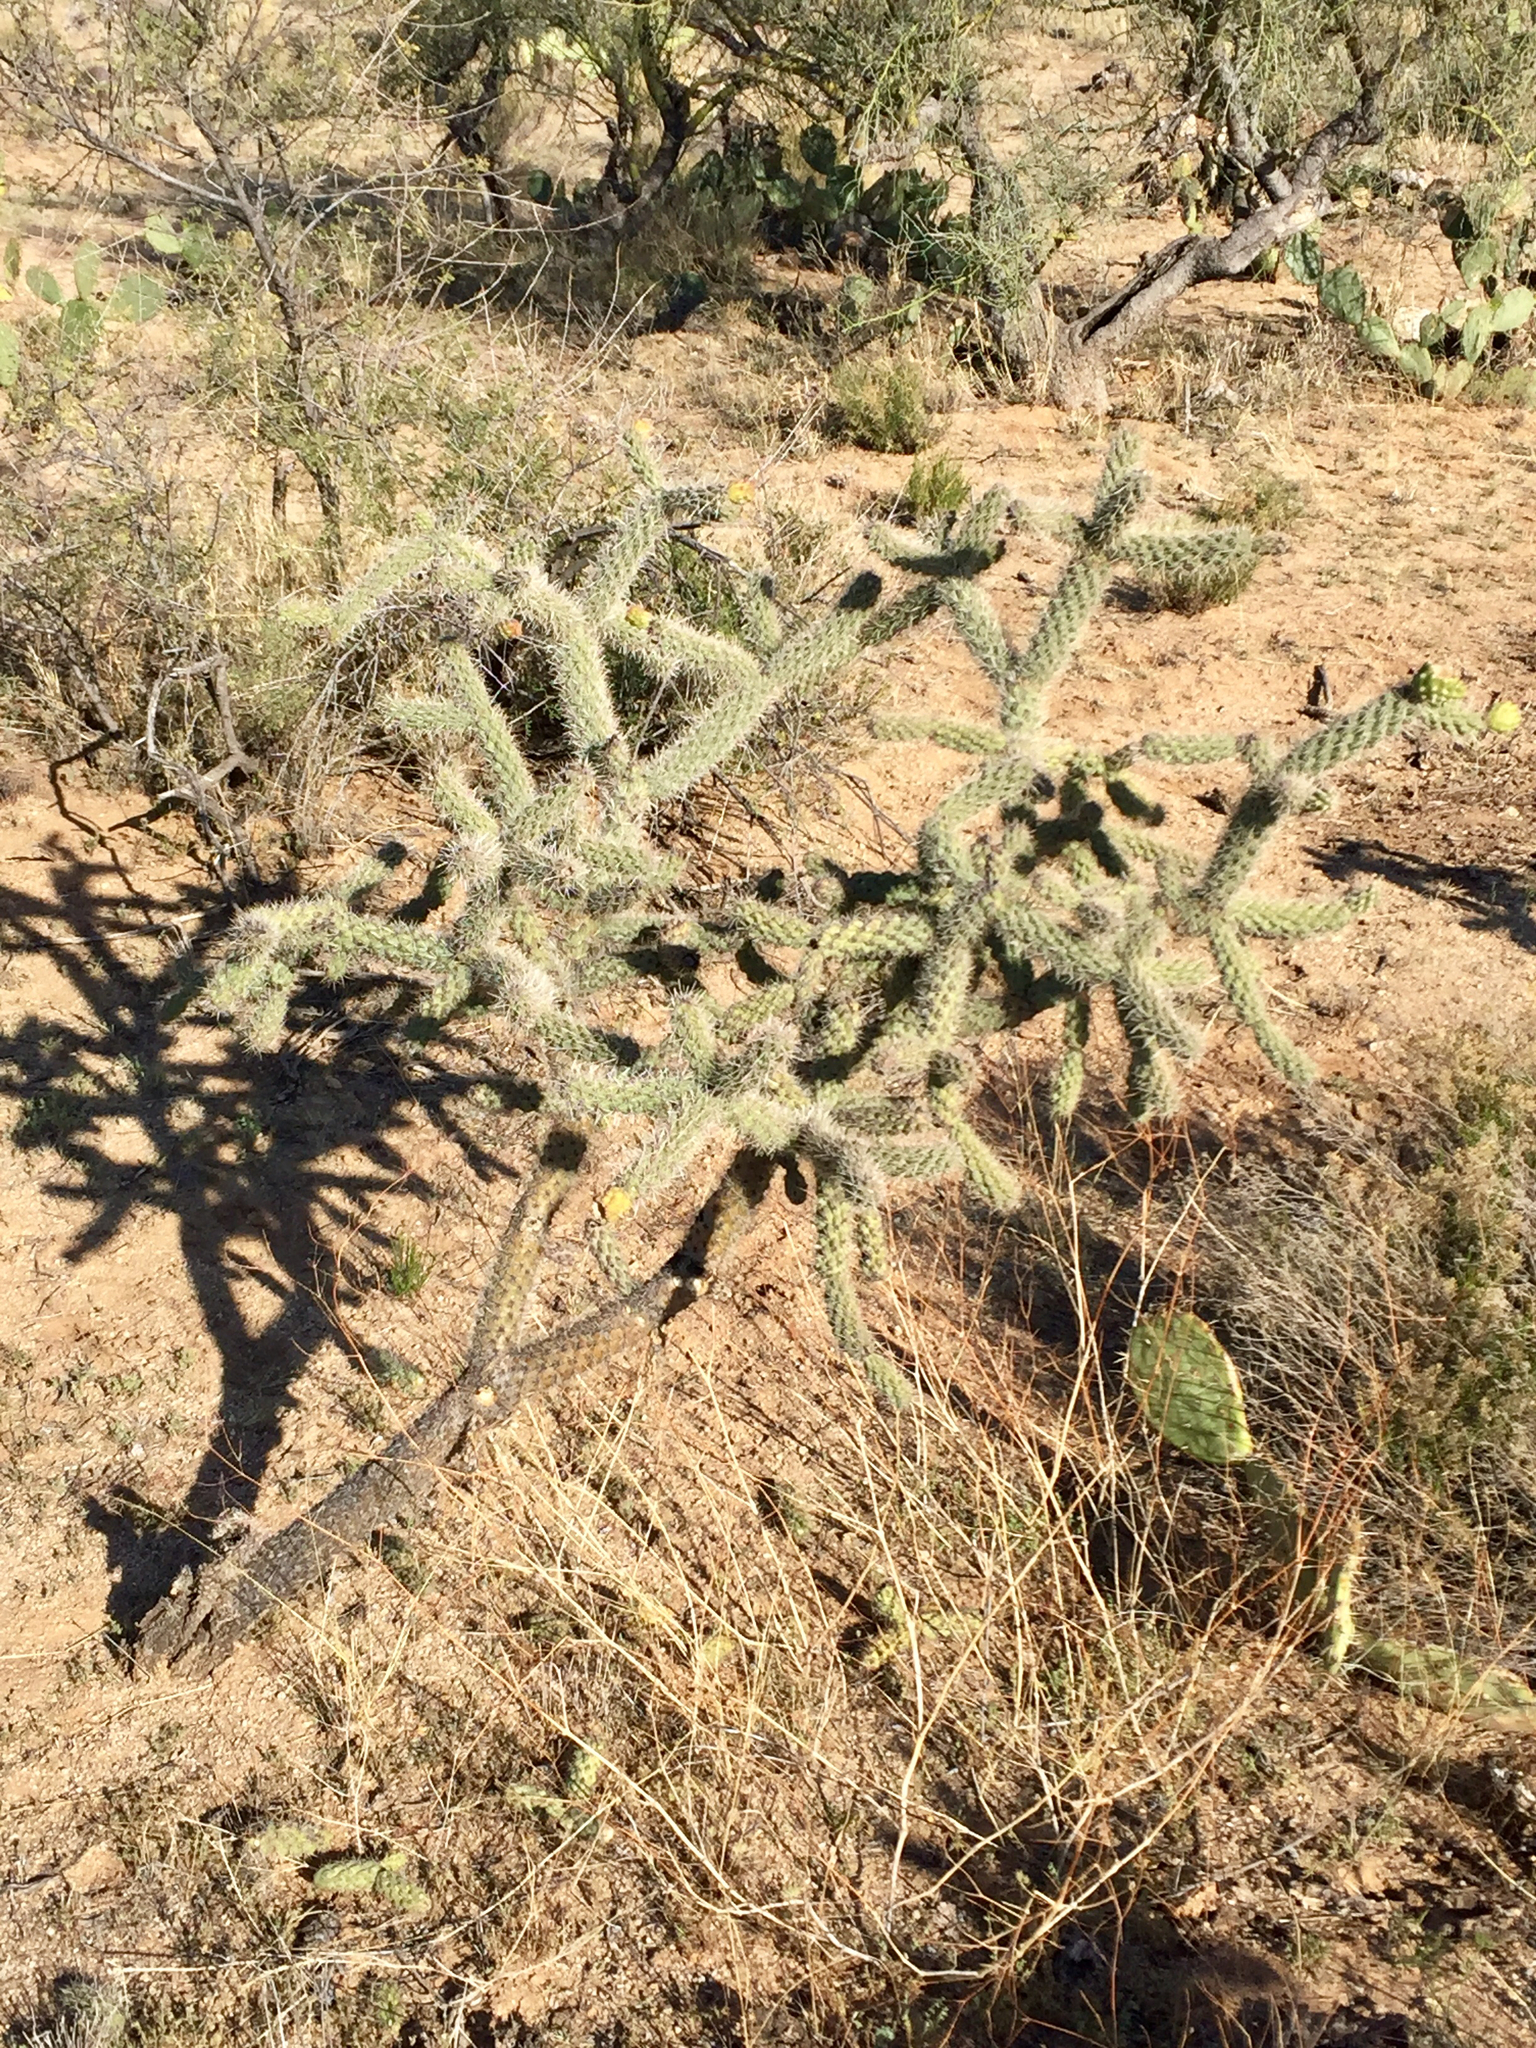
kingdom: Plantae
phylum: Tracheophyta
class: Magnoliopsida
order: Caryophyllales
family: Cactaceae
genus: Cylindropuntia
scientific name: Cylindropuntia imbricata
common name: Candelabrum cactus
